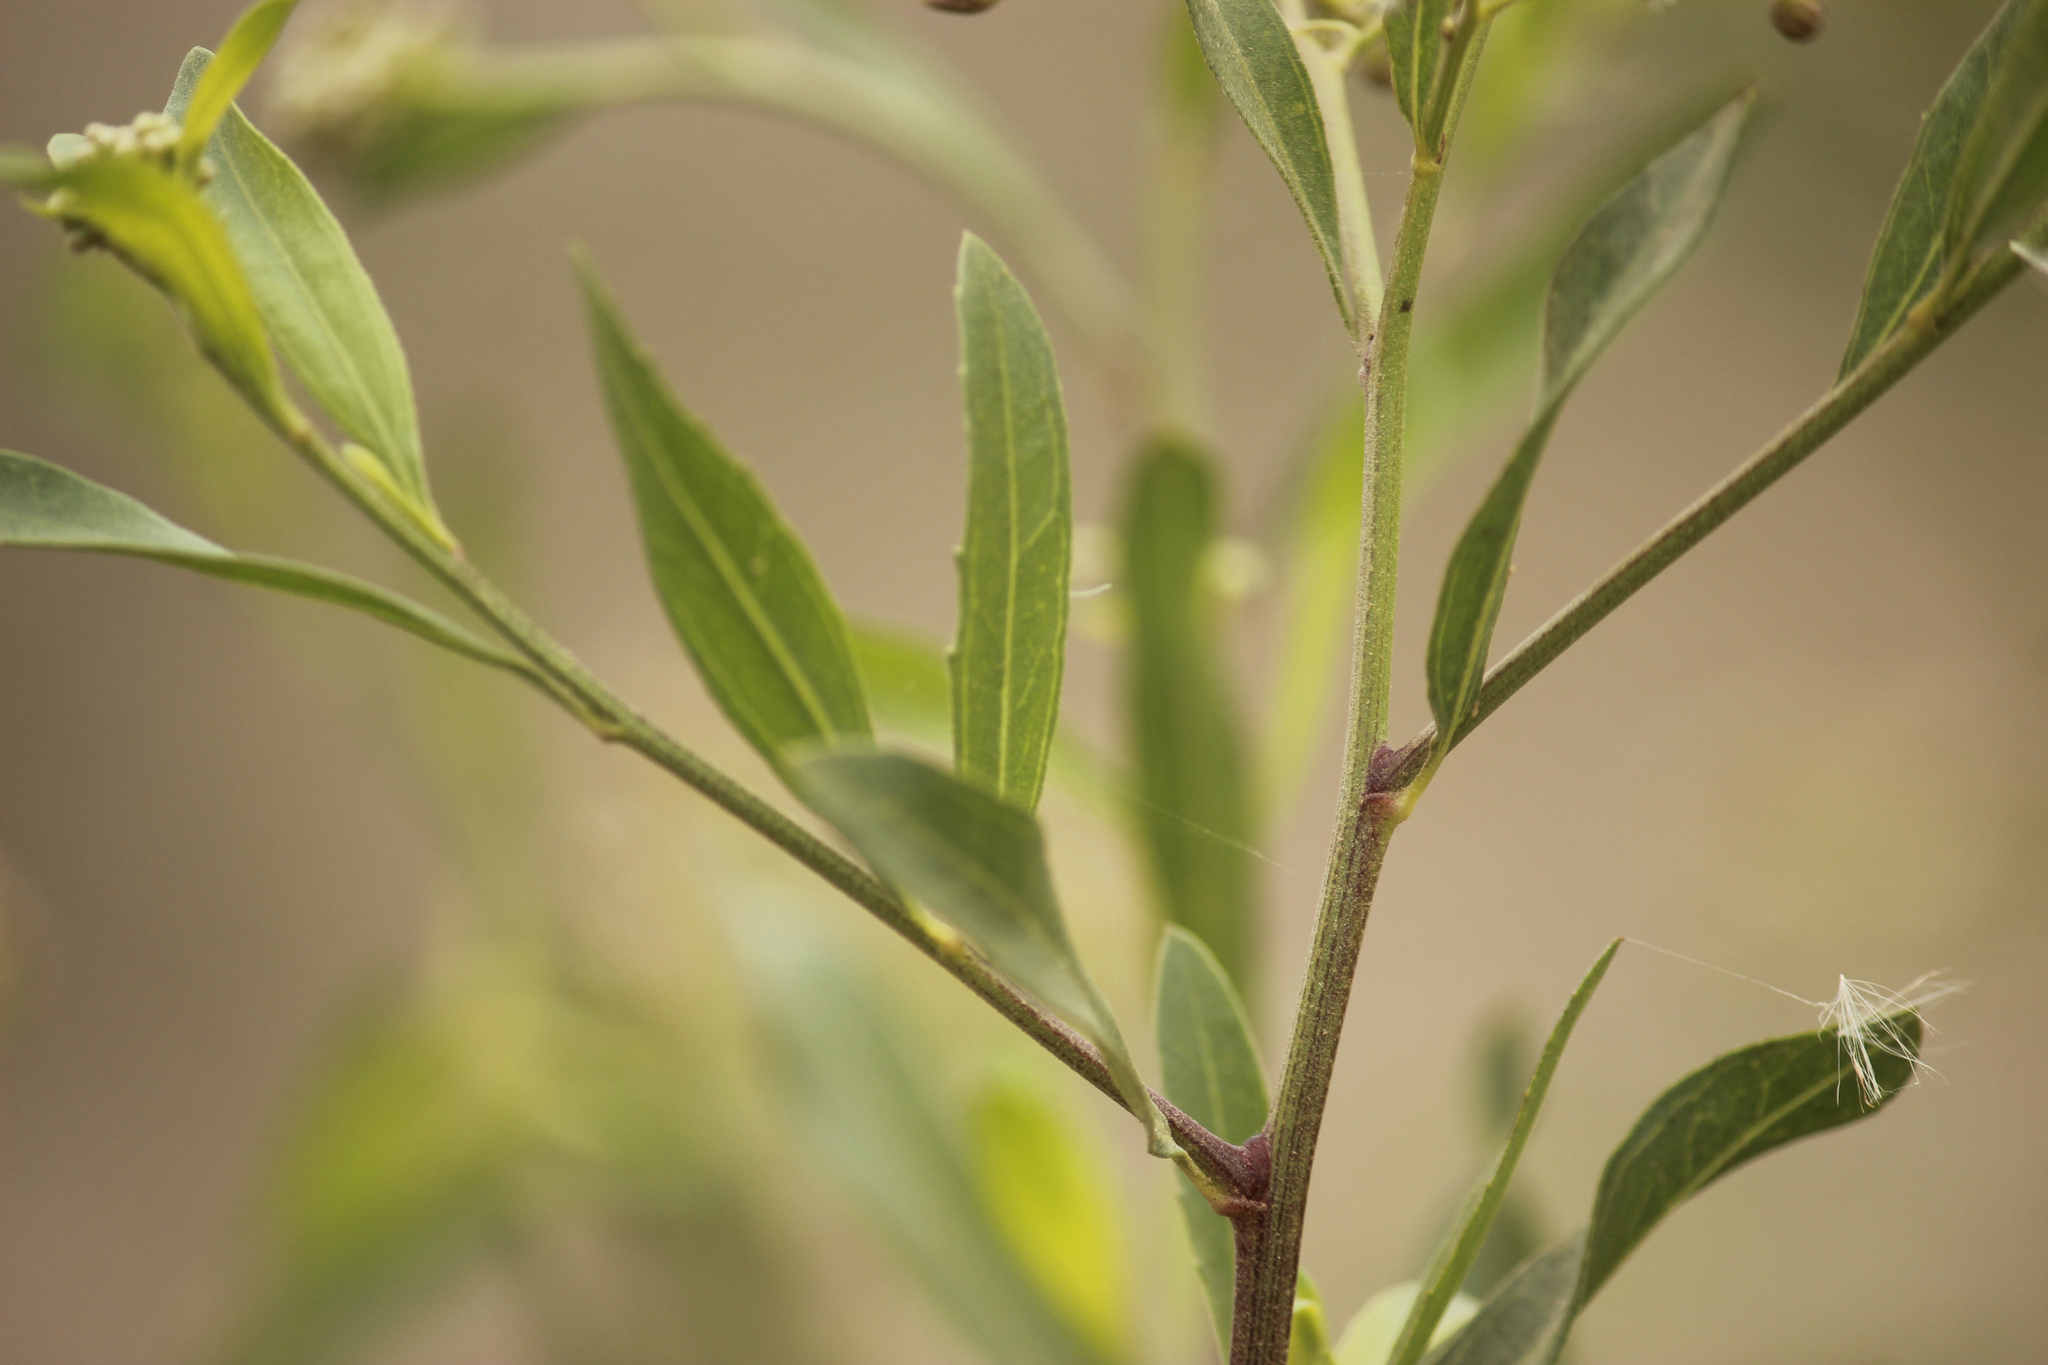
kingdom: Plantae
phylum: Tracheophyta
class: Magnoliopsida
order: Asterales
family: Asteraceae
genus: Baccharis
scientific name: Baccharis salicifolia
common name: Sticky baccharis
